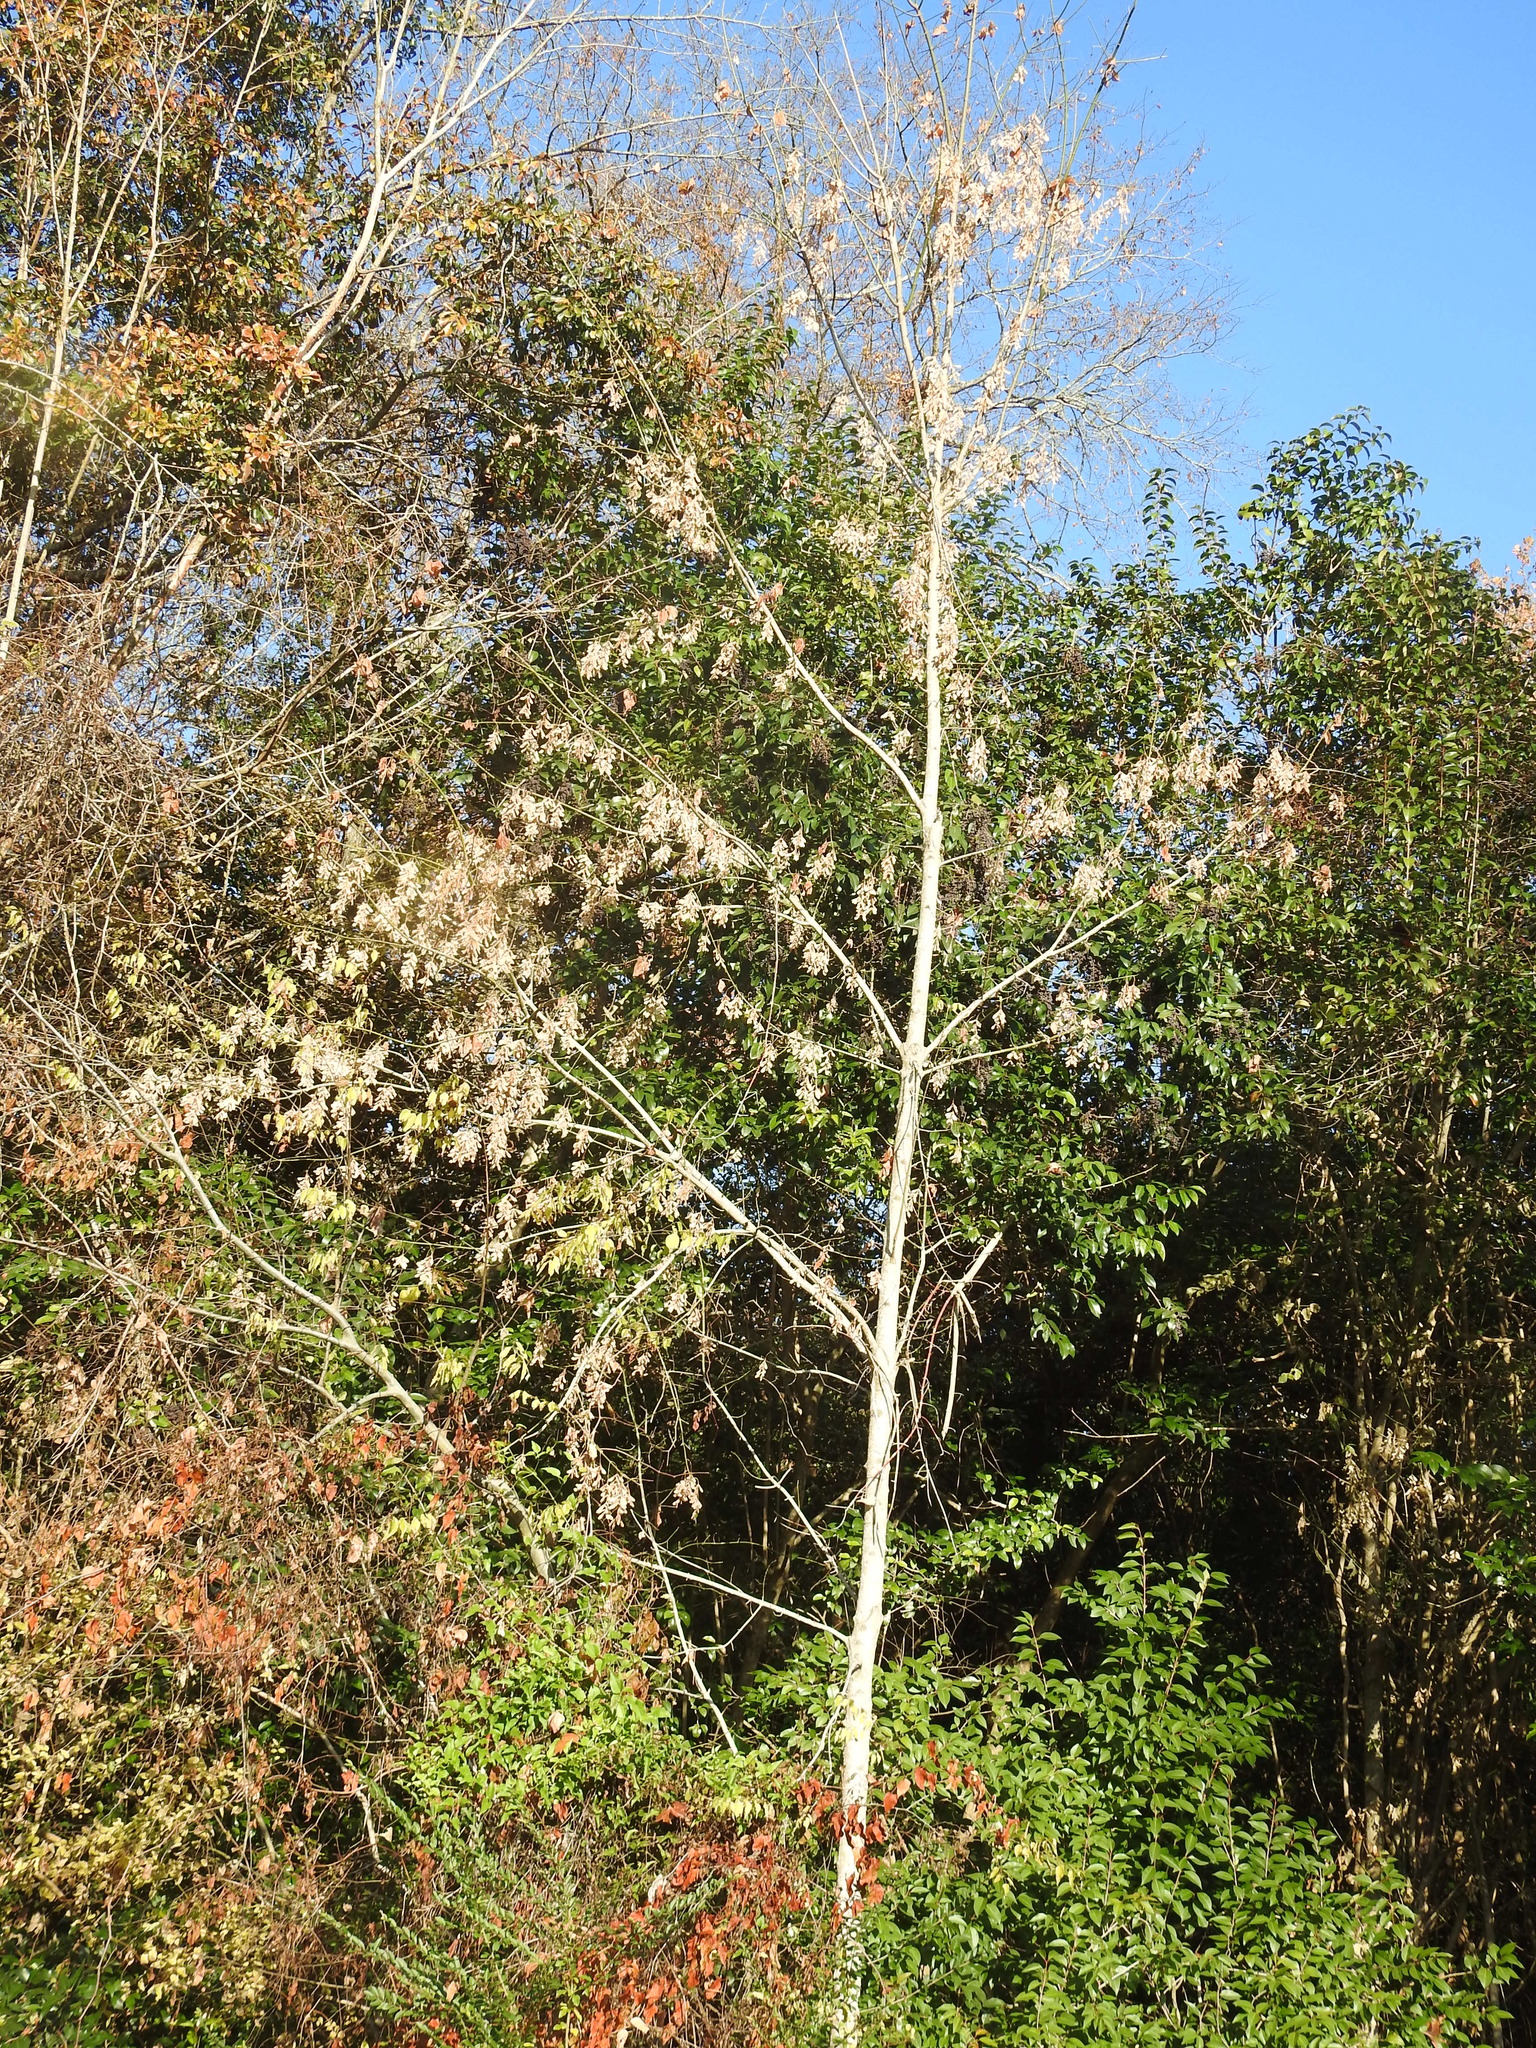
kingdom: Plantae
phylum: Tracheophyta
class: Magnoliopsida
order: Sapindales
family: Sapindaceae
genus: Acer
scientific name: Acer negundo
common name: Ashleaf maple
